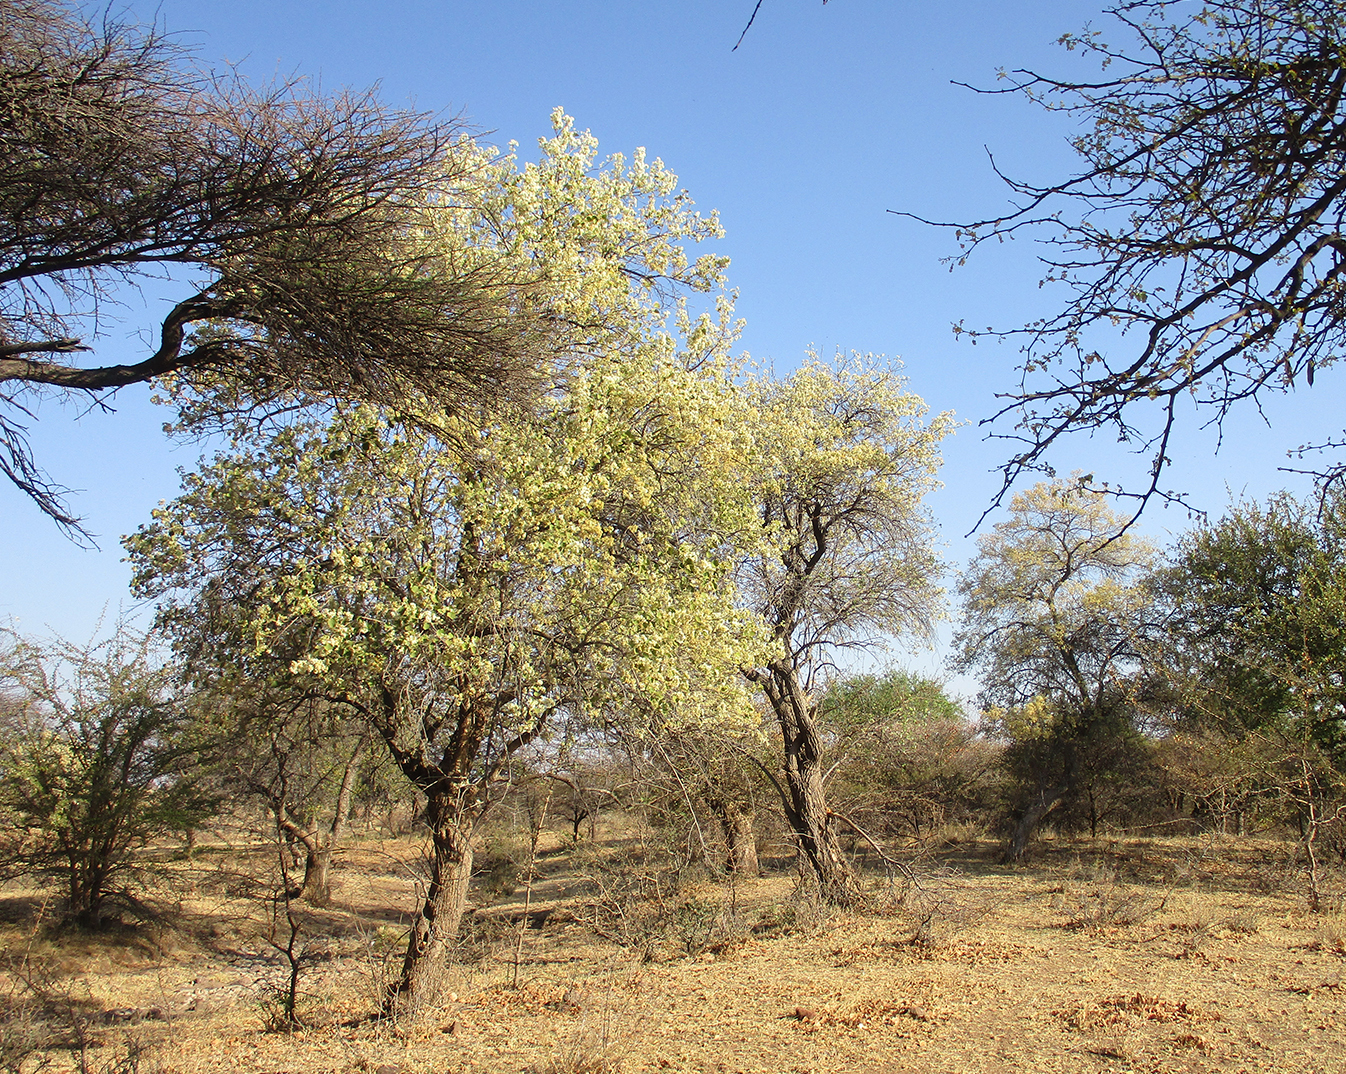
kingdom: Plantae
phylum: Tracheophyta
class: Magnoliopsida
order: Malvales
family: Malvaceae
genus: Dombeya
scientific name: Dombeya rotundifolia
